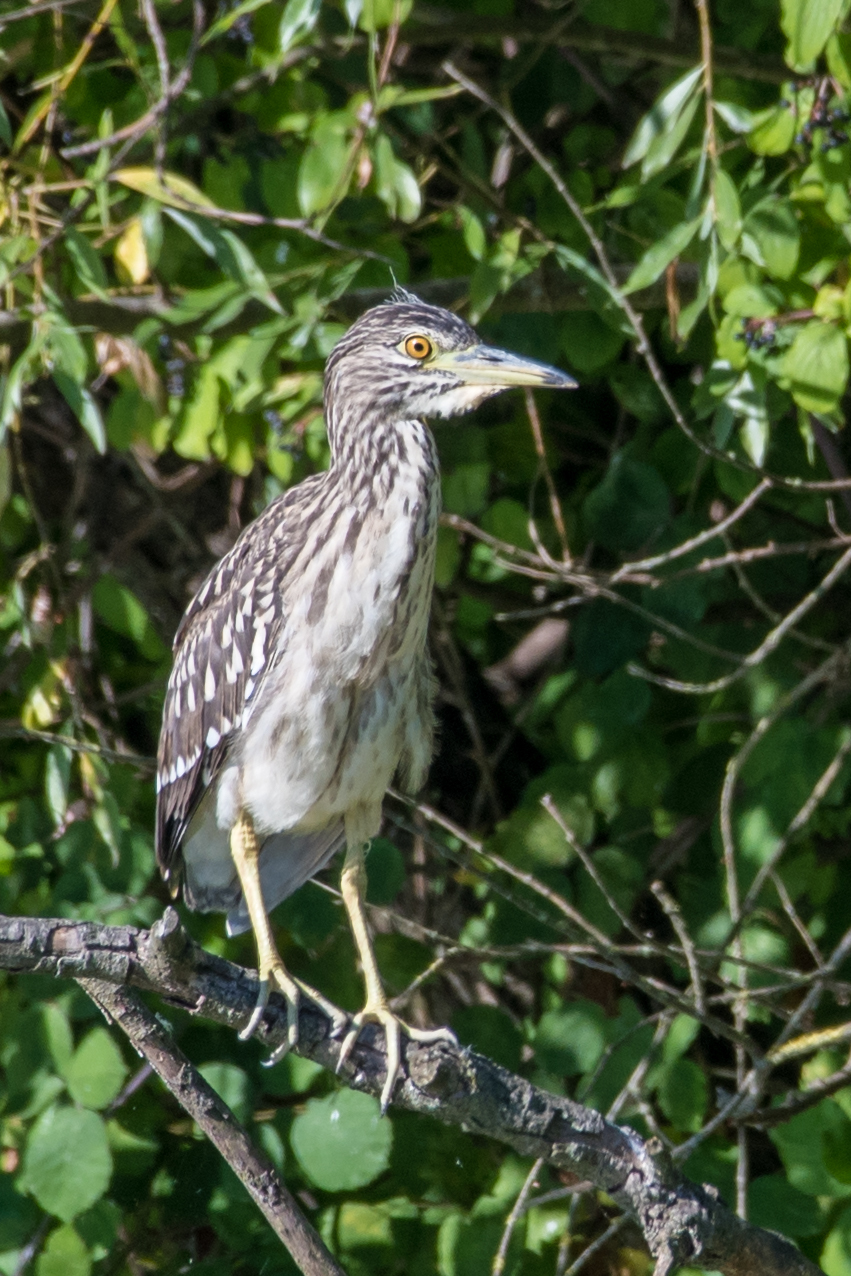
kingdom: Animalia
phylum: Chordata
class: Aves
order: Pelecaniformes
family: Ardeidae
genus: Nycticorax
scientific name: Nycticorax nycticorax
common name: Black-crowned night heron
